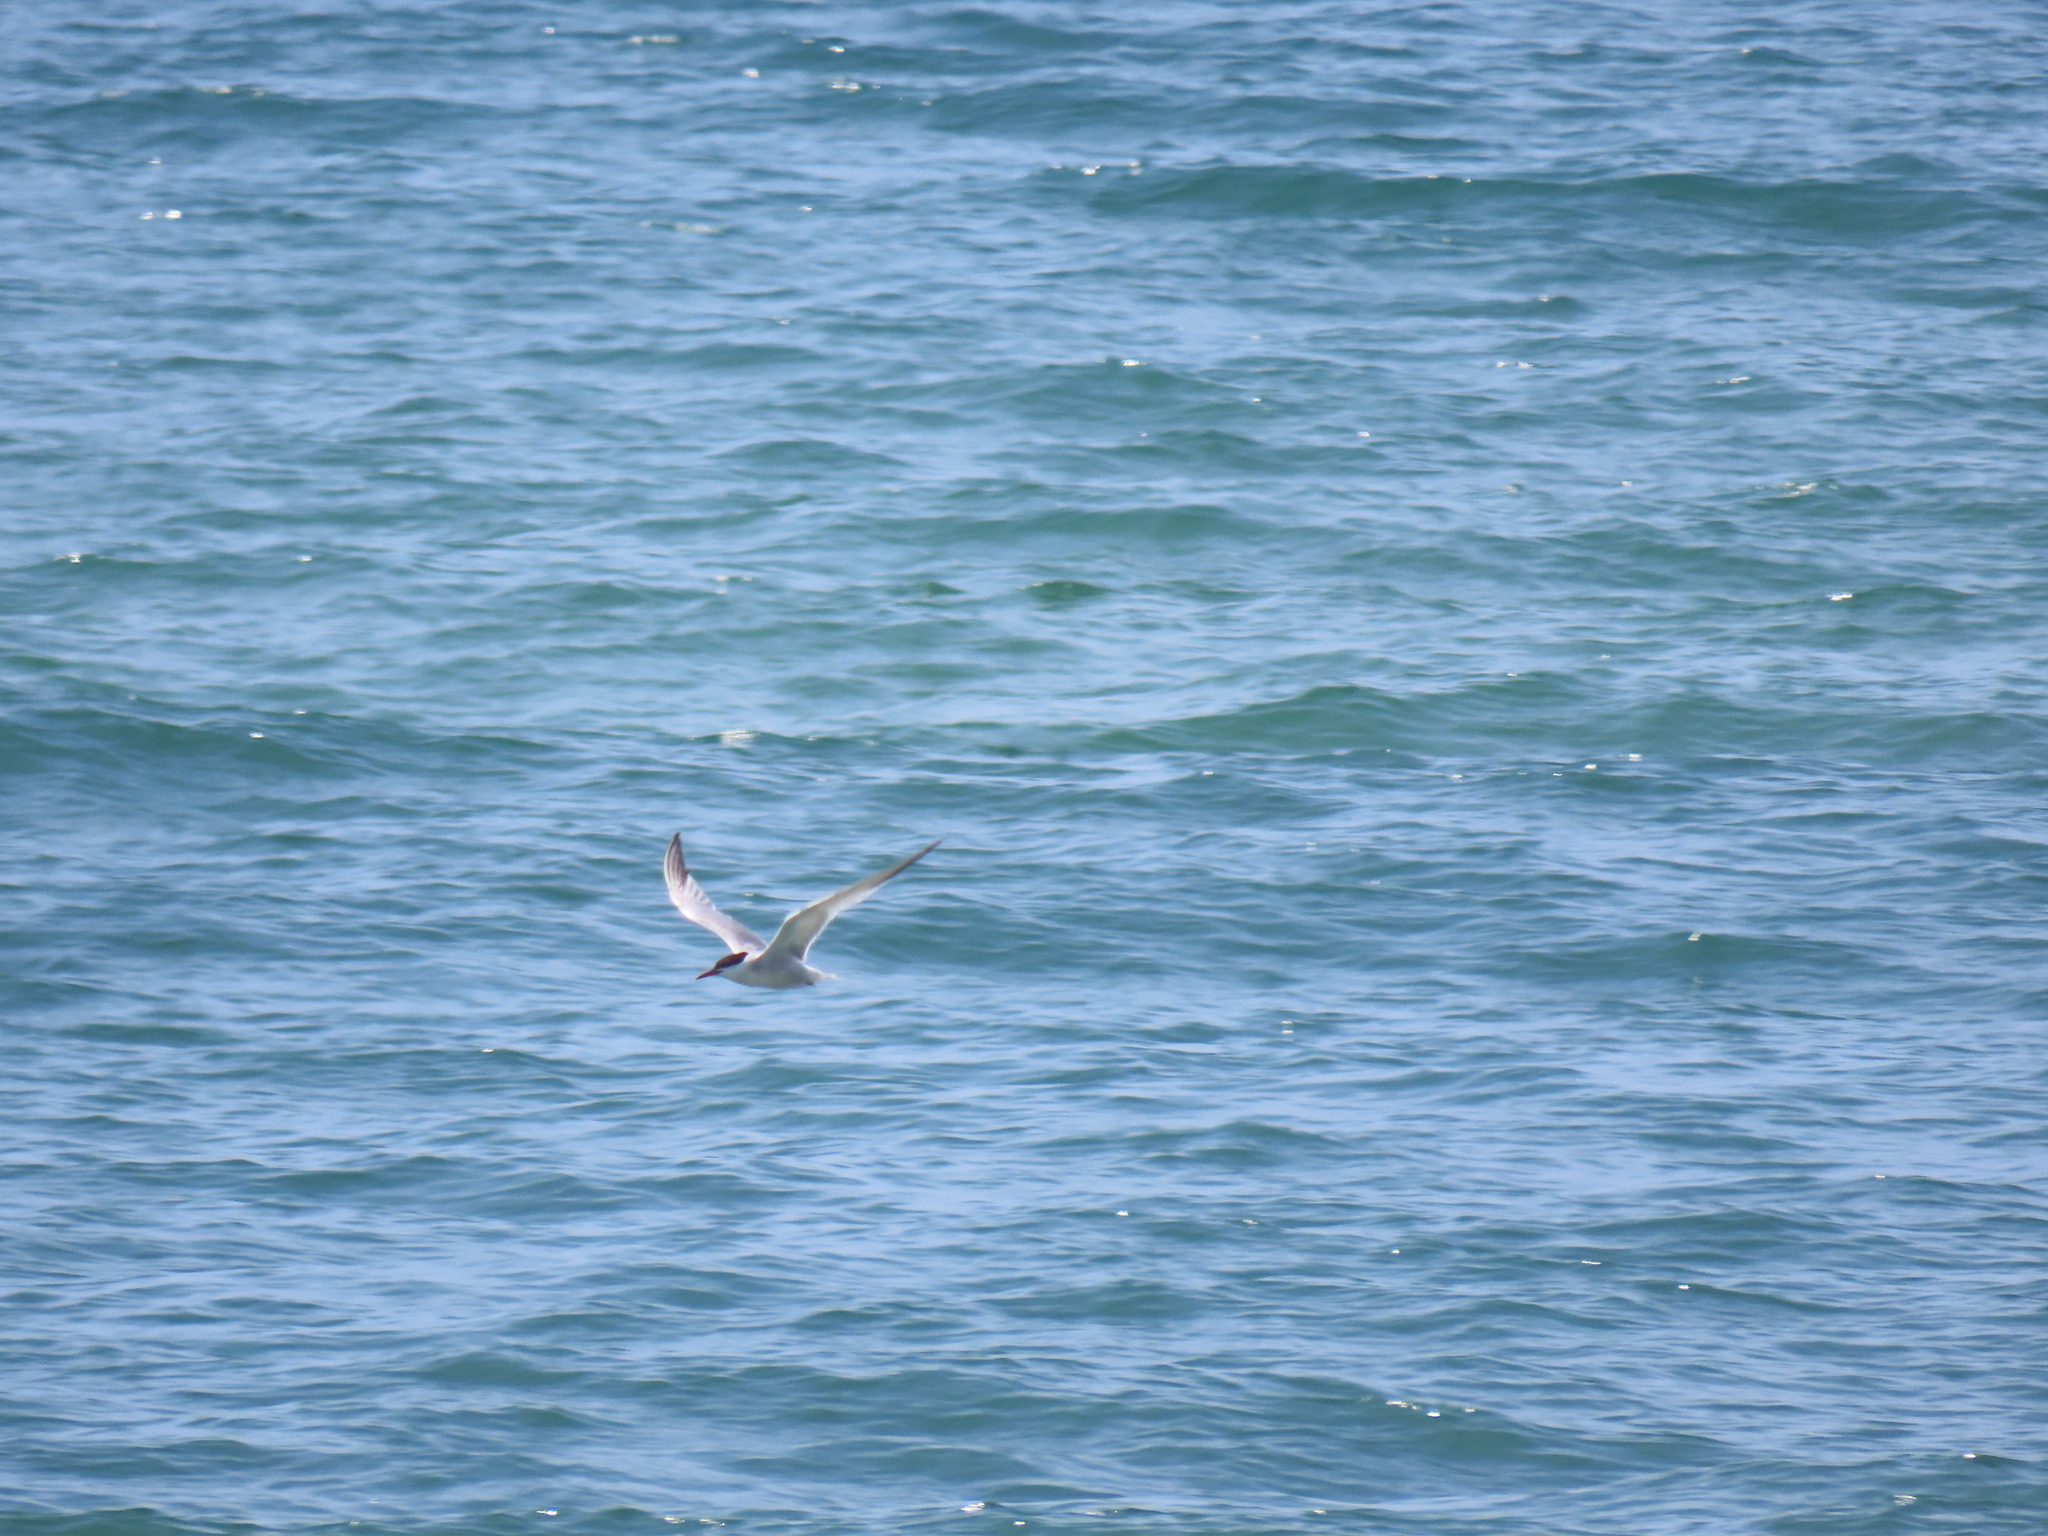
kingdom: Animalia
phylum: Chordata
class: Aves
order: Charadriiformes
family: Laridae
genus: Sterna
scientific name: Sterna hirundo
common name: Common tern
